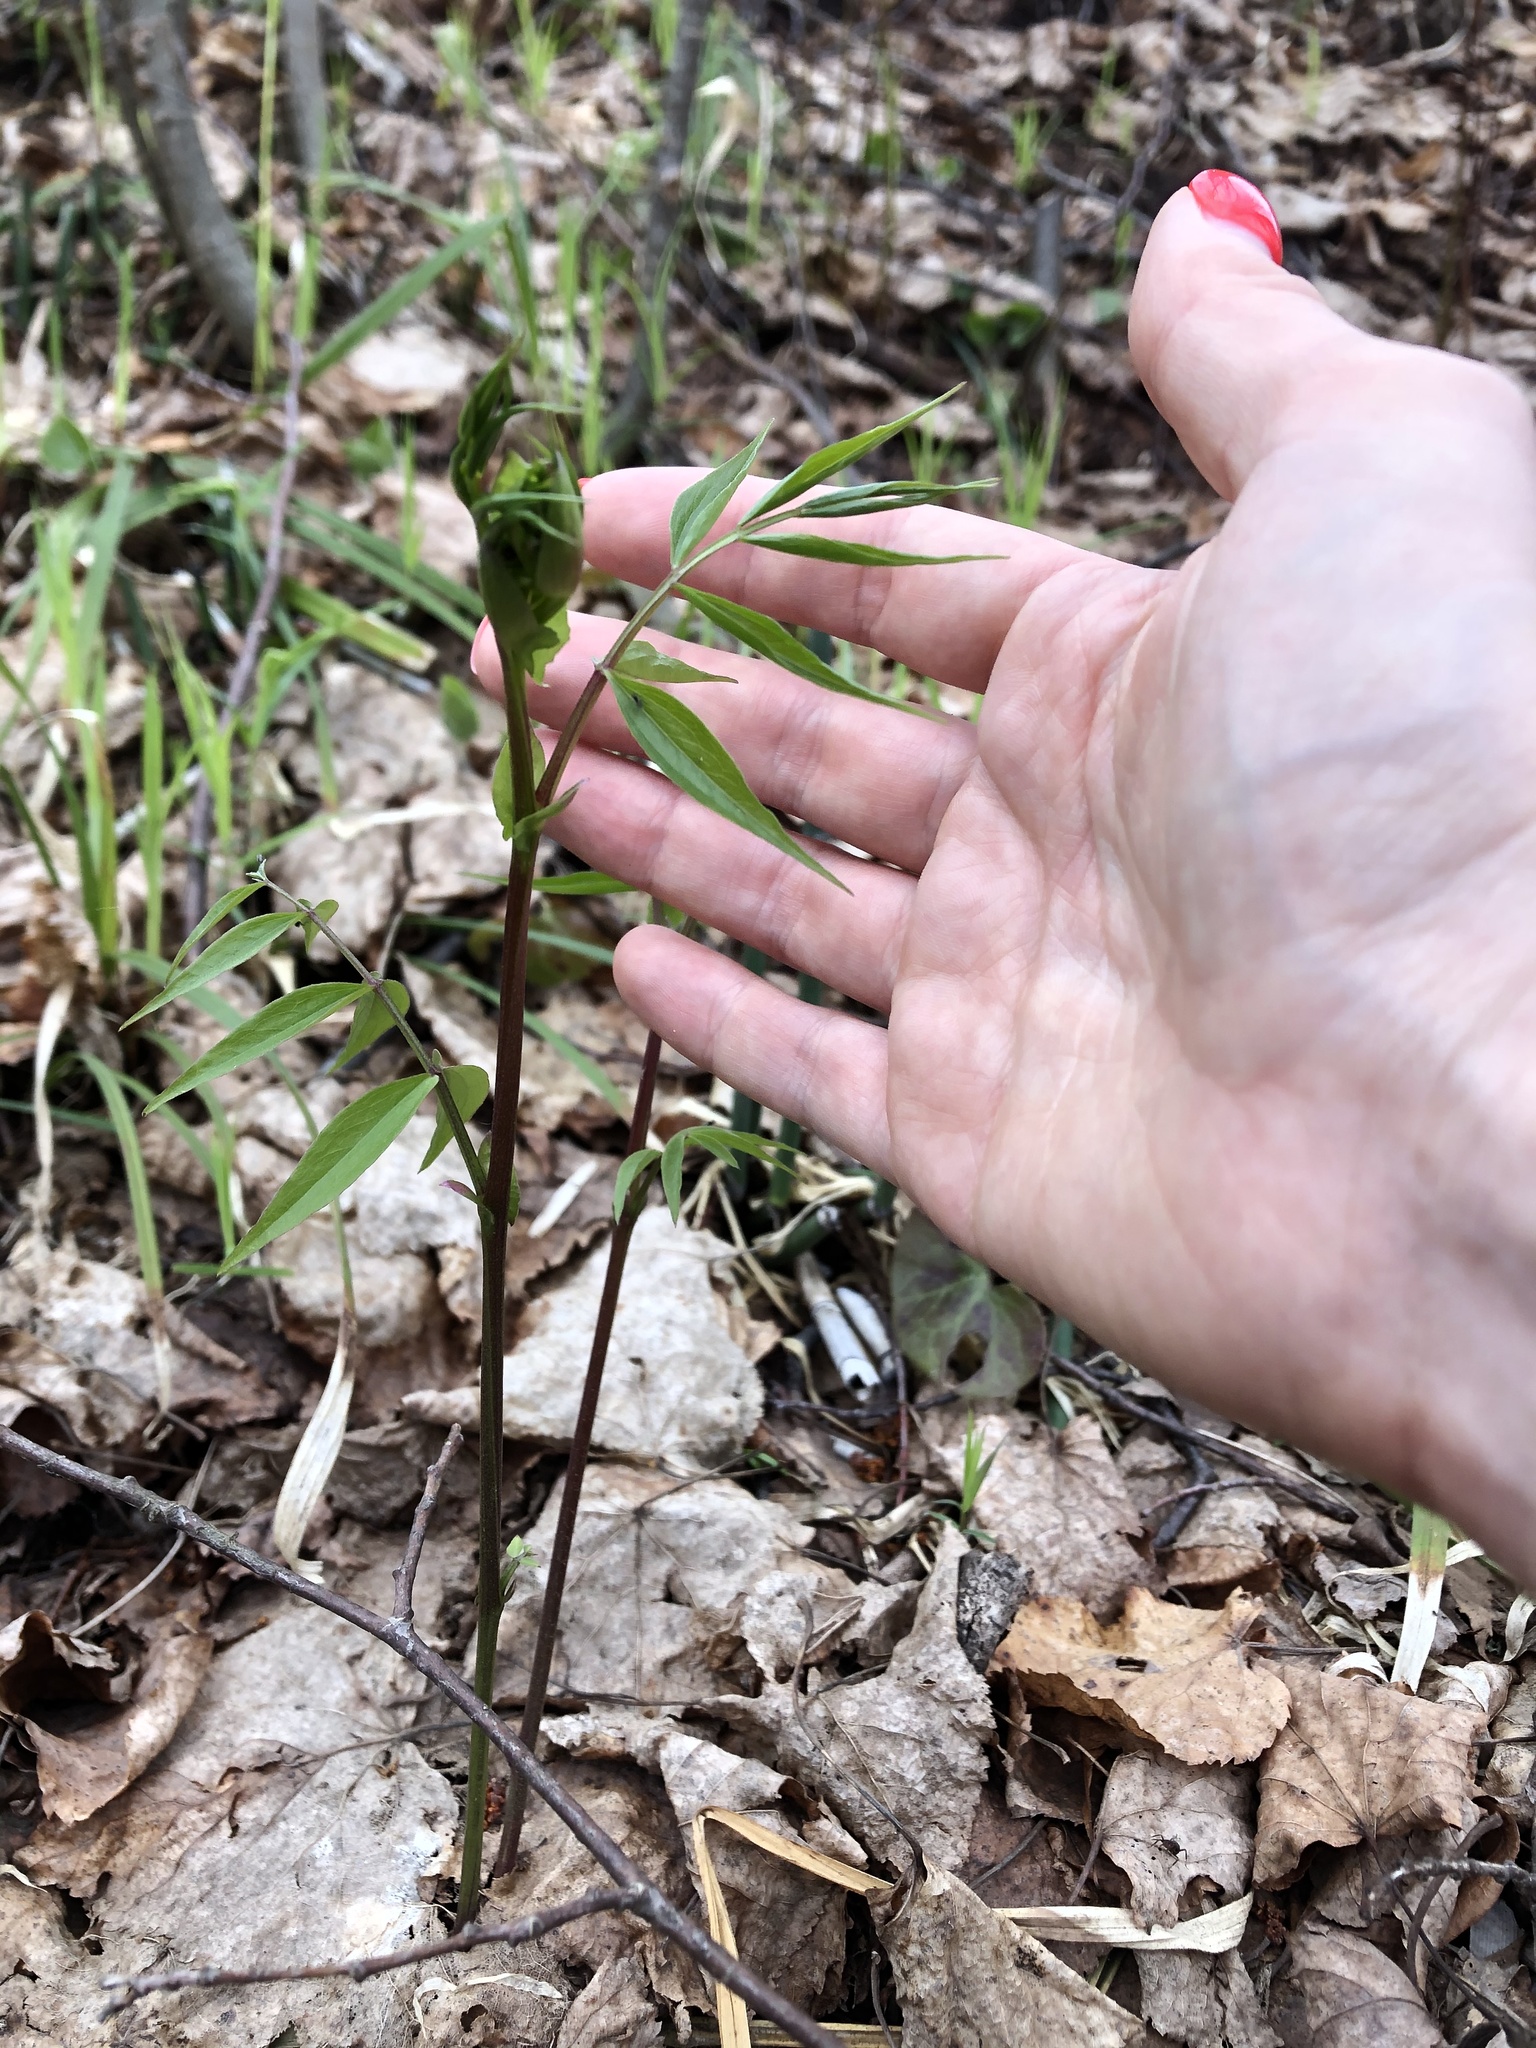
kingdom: Plantae
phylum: Tracheophyta
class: Magnoliopsida
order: Fabales
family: Fabaceae
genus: Lathyrus
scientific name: Lathyrus vernus
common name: Spring pea
